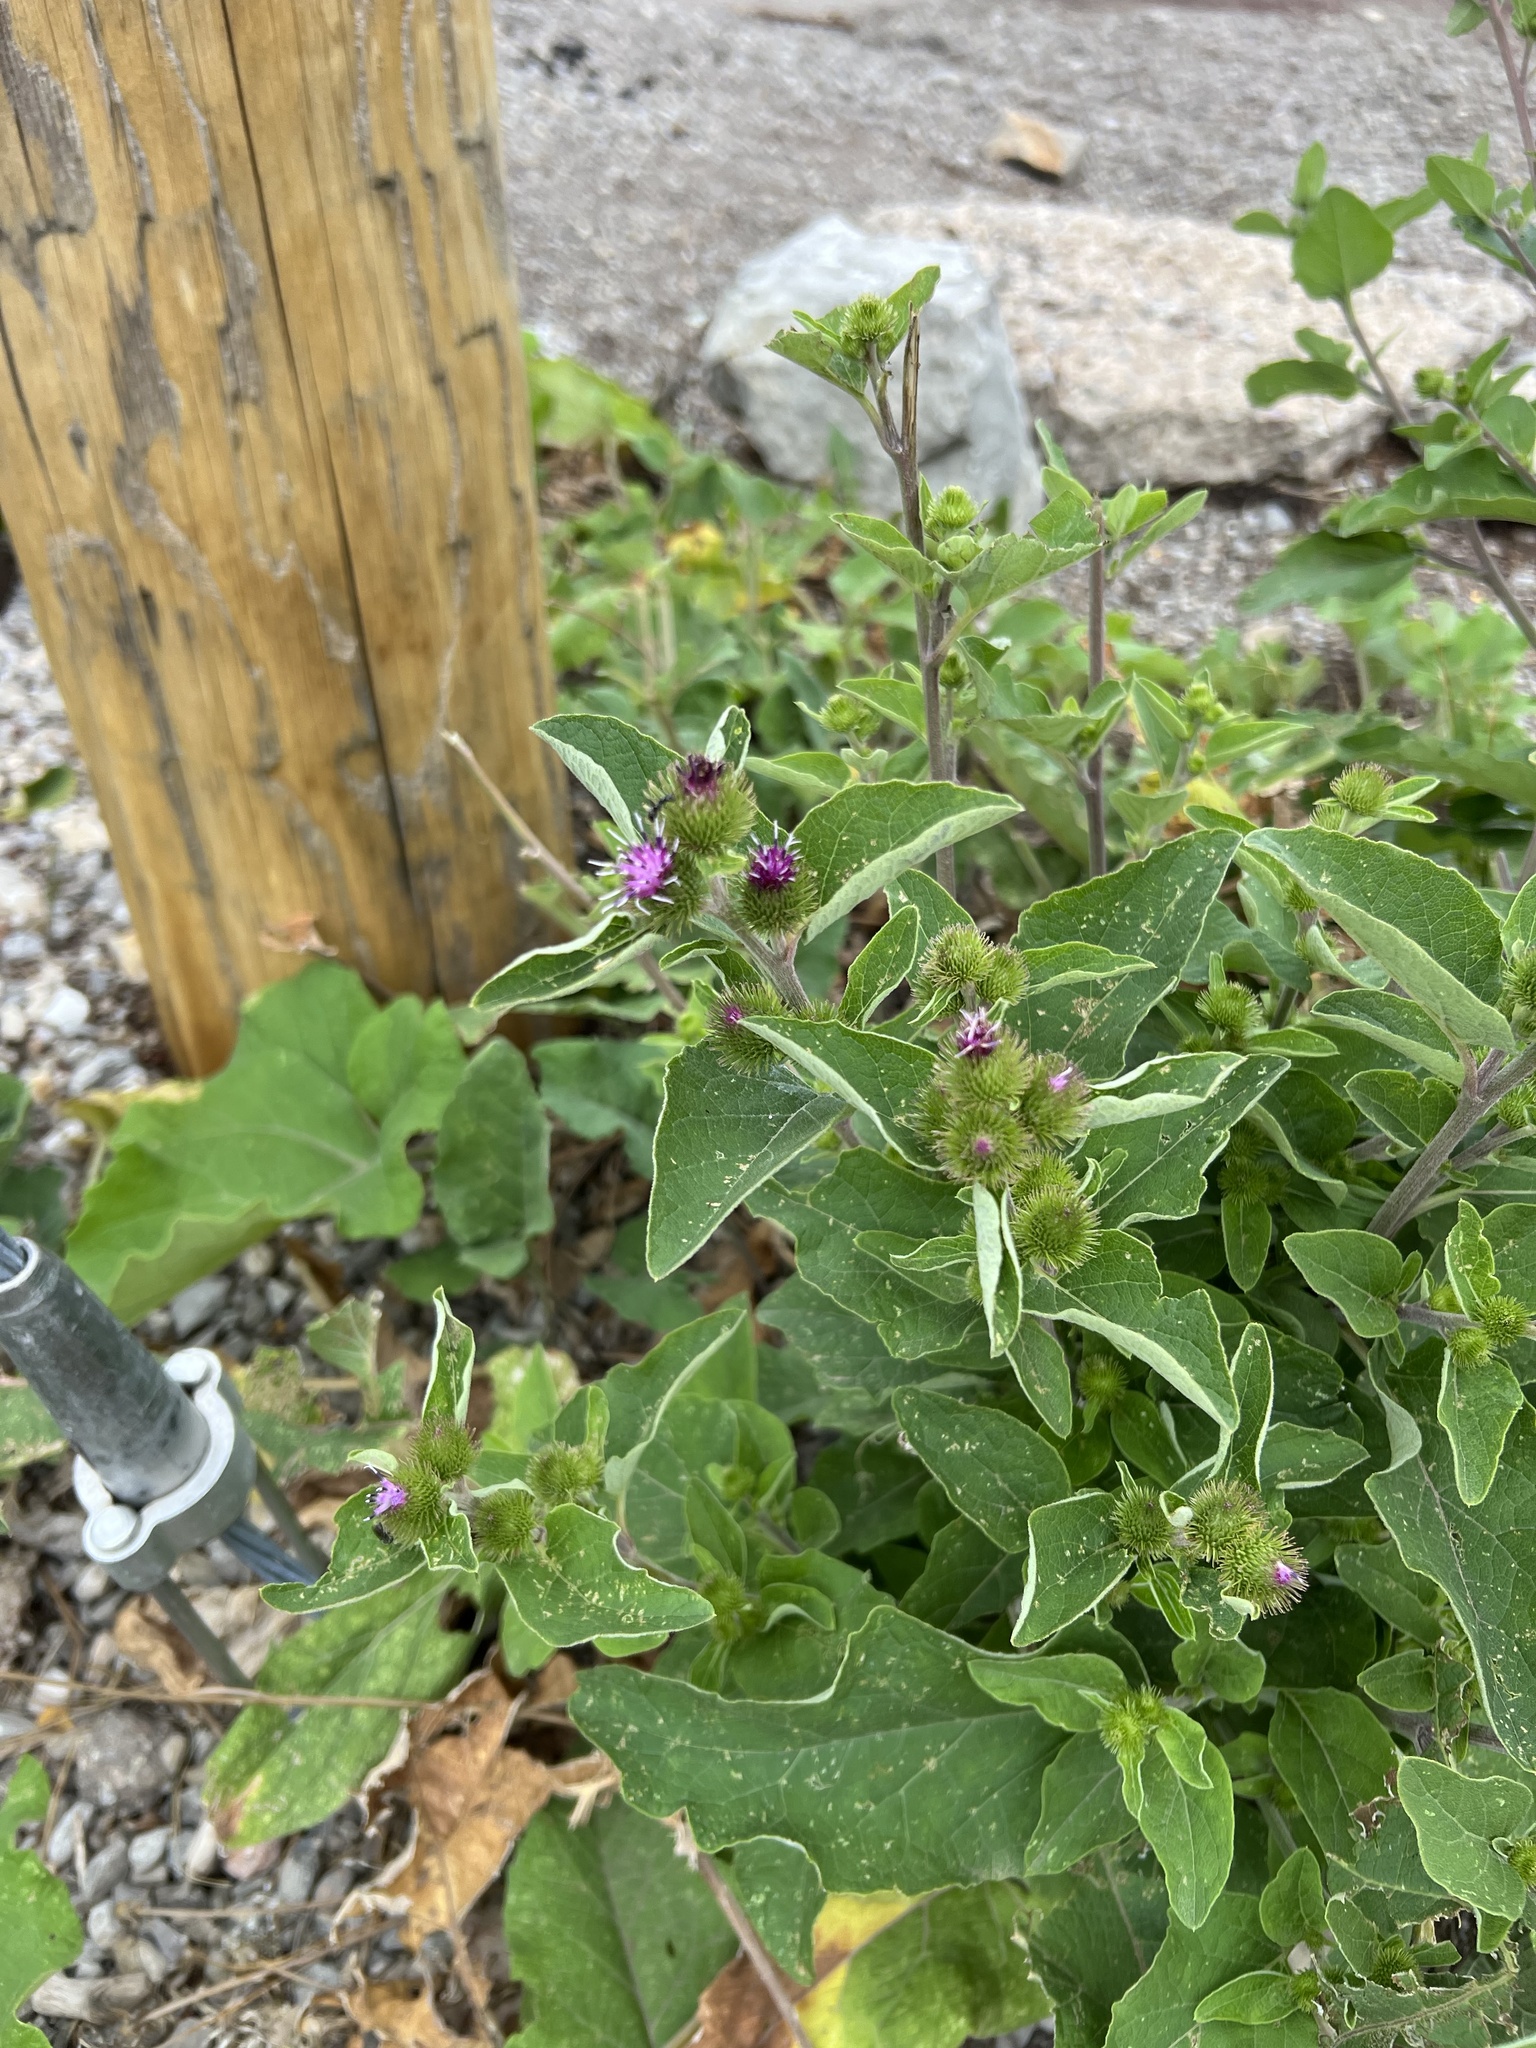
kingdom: Plantae
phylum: Tracheophyta
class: Magnoliopsida
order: Asterales
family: Asteraceae
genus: Arctium
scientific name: Arctium minus
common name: Lesser burdock
